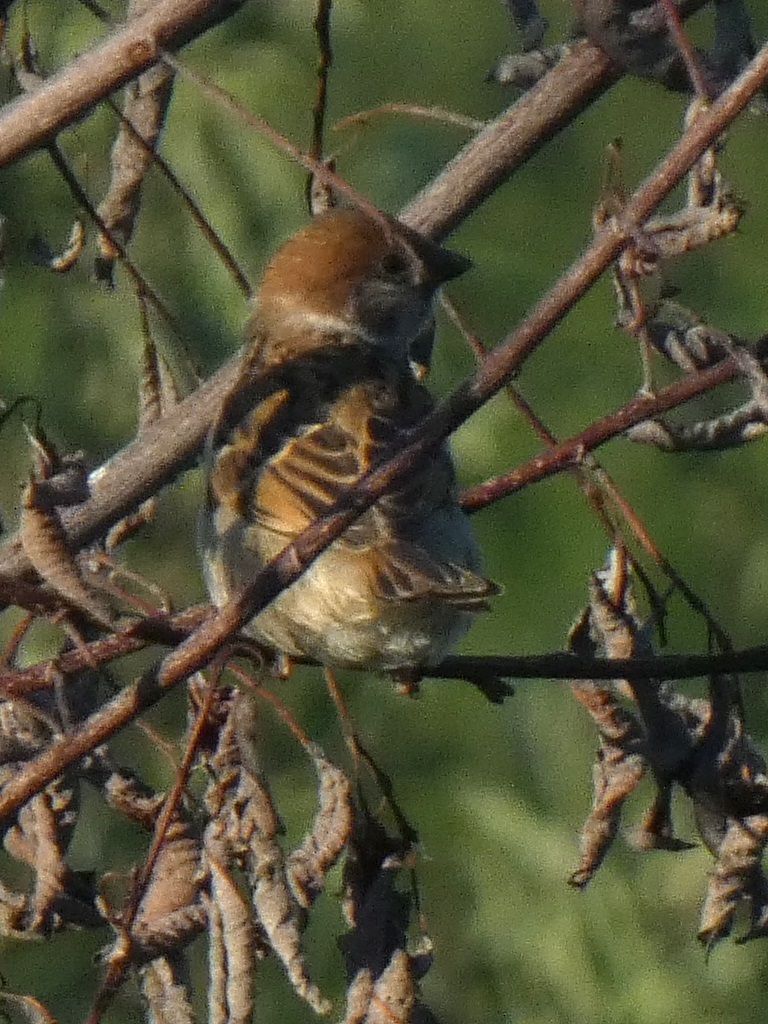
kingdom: Animalia
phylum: Chordata
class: Aves
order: Passeriformes
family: Passeridae
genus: Passer
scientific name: Passer montanus
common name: Eurasian tree sparrow
